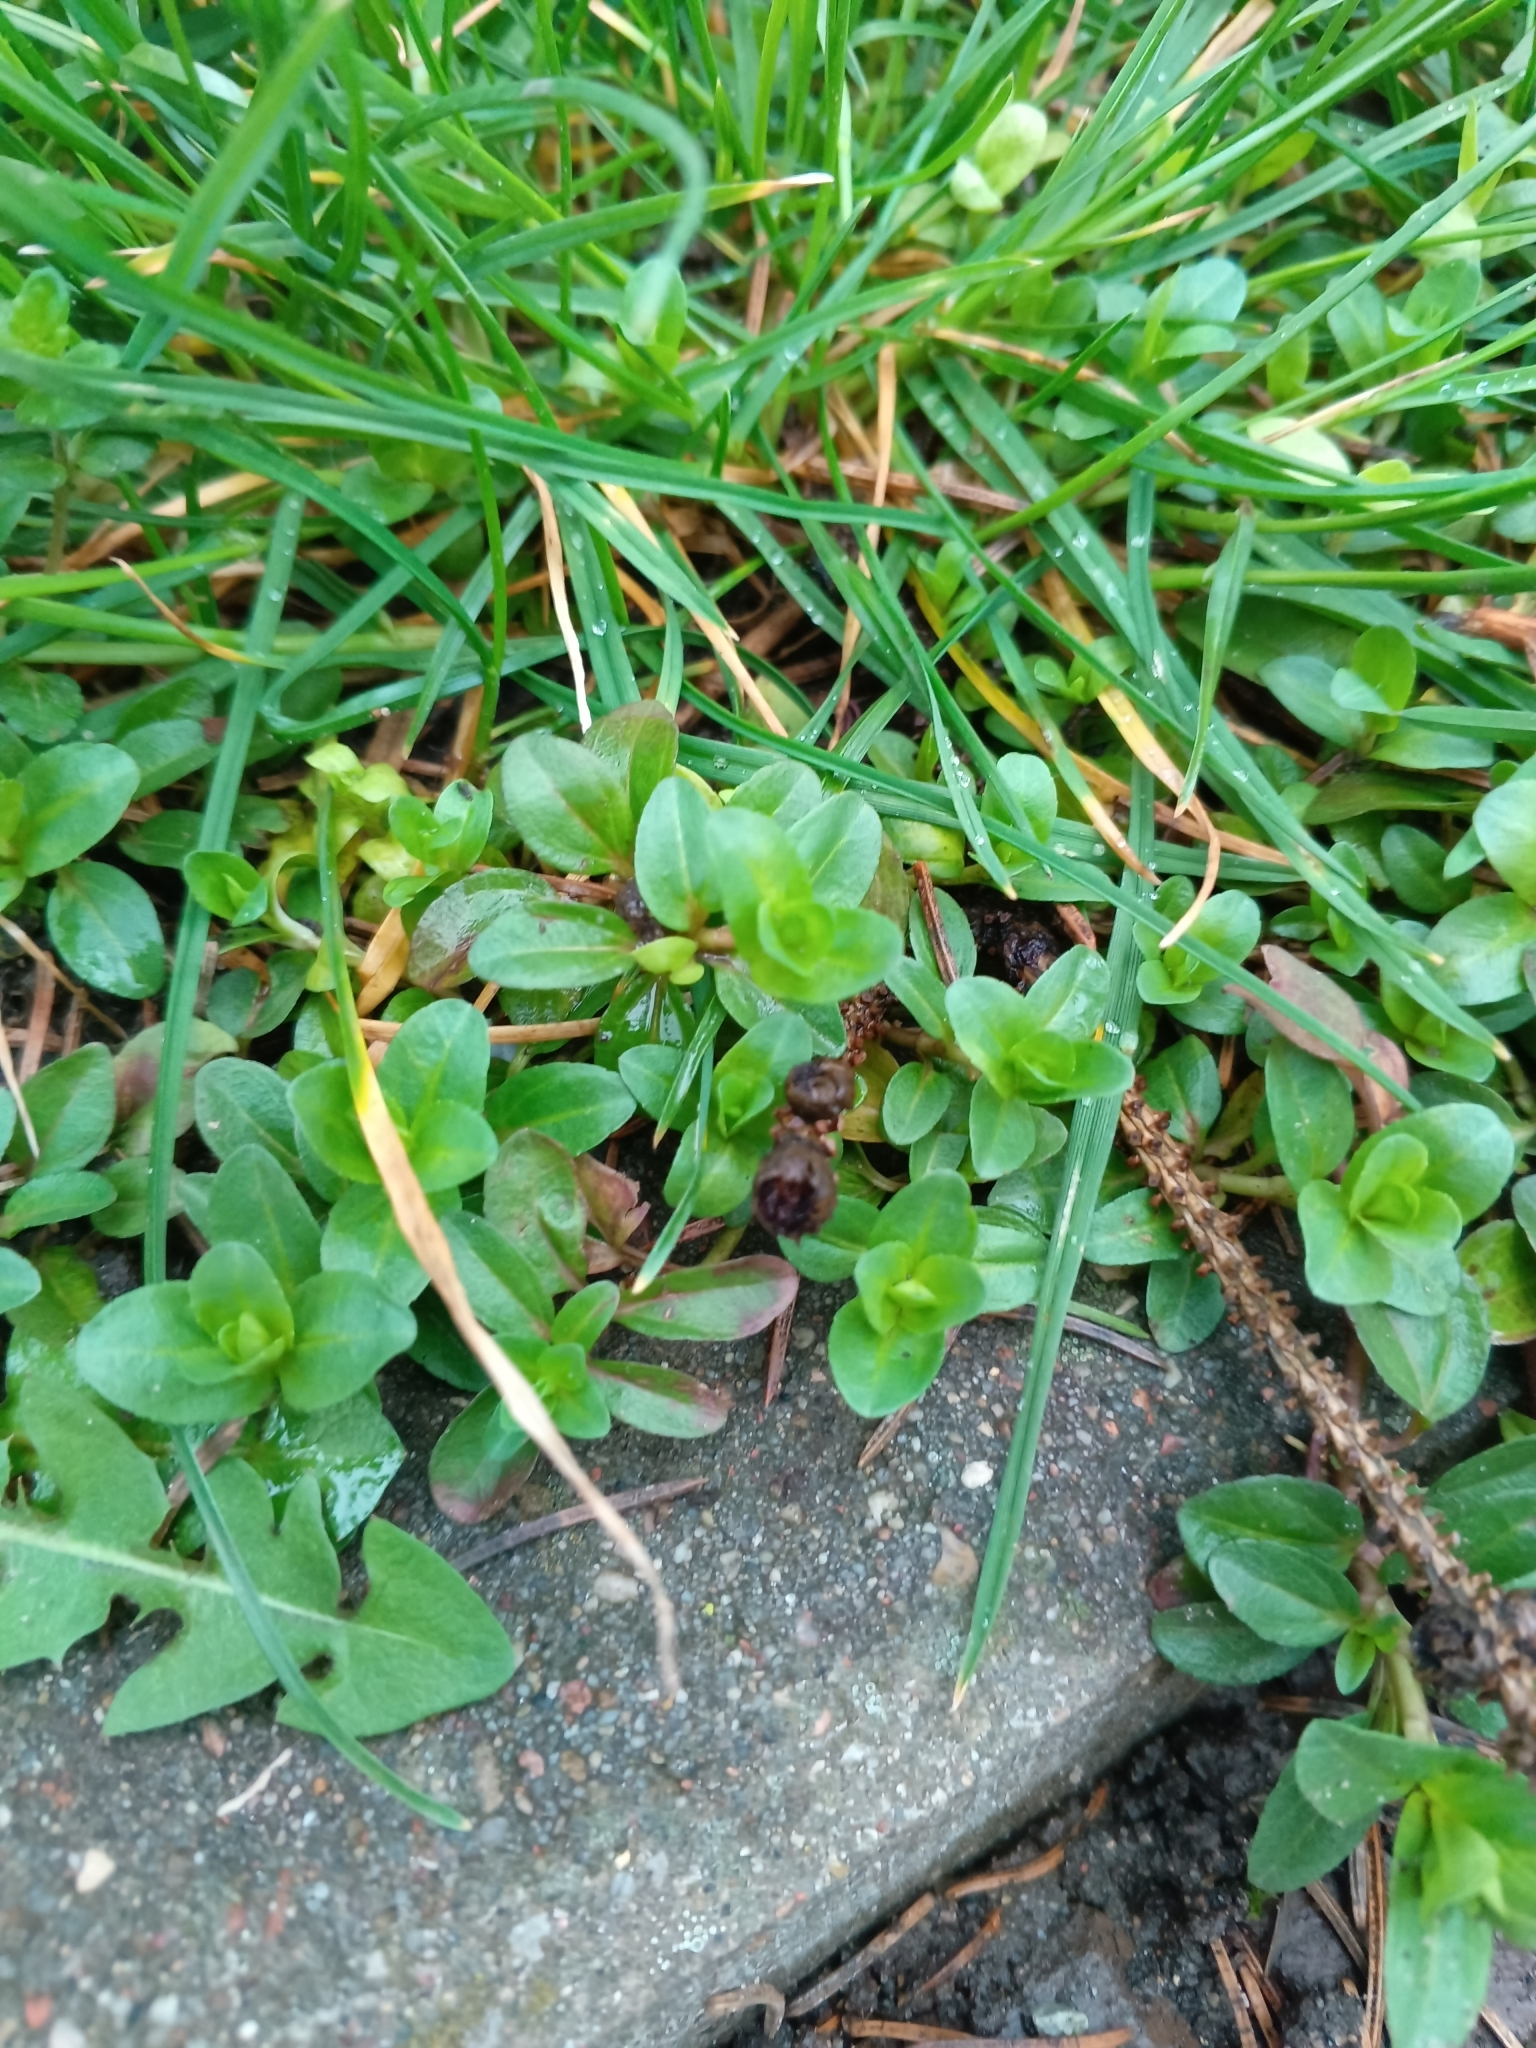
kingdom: Plantae
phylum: Tracheophyta
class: Magnoliopsida
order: Lamiales
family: Plantaginaceae
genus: Veronica
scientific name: Veronica serpyllifolia
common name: Thyme-leaved speedwell
